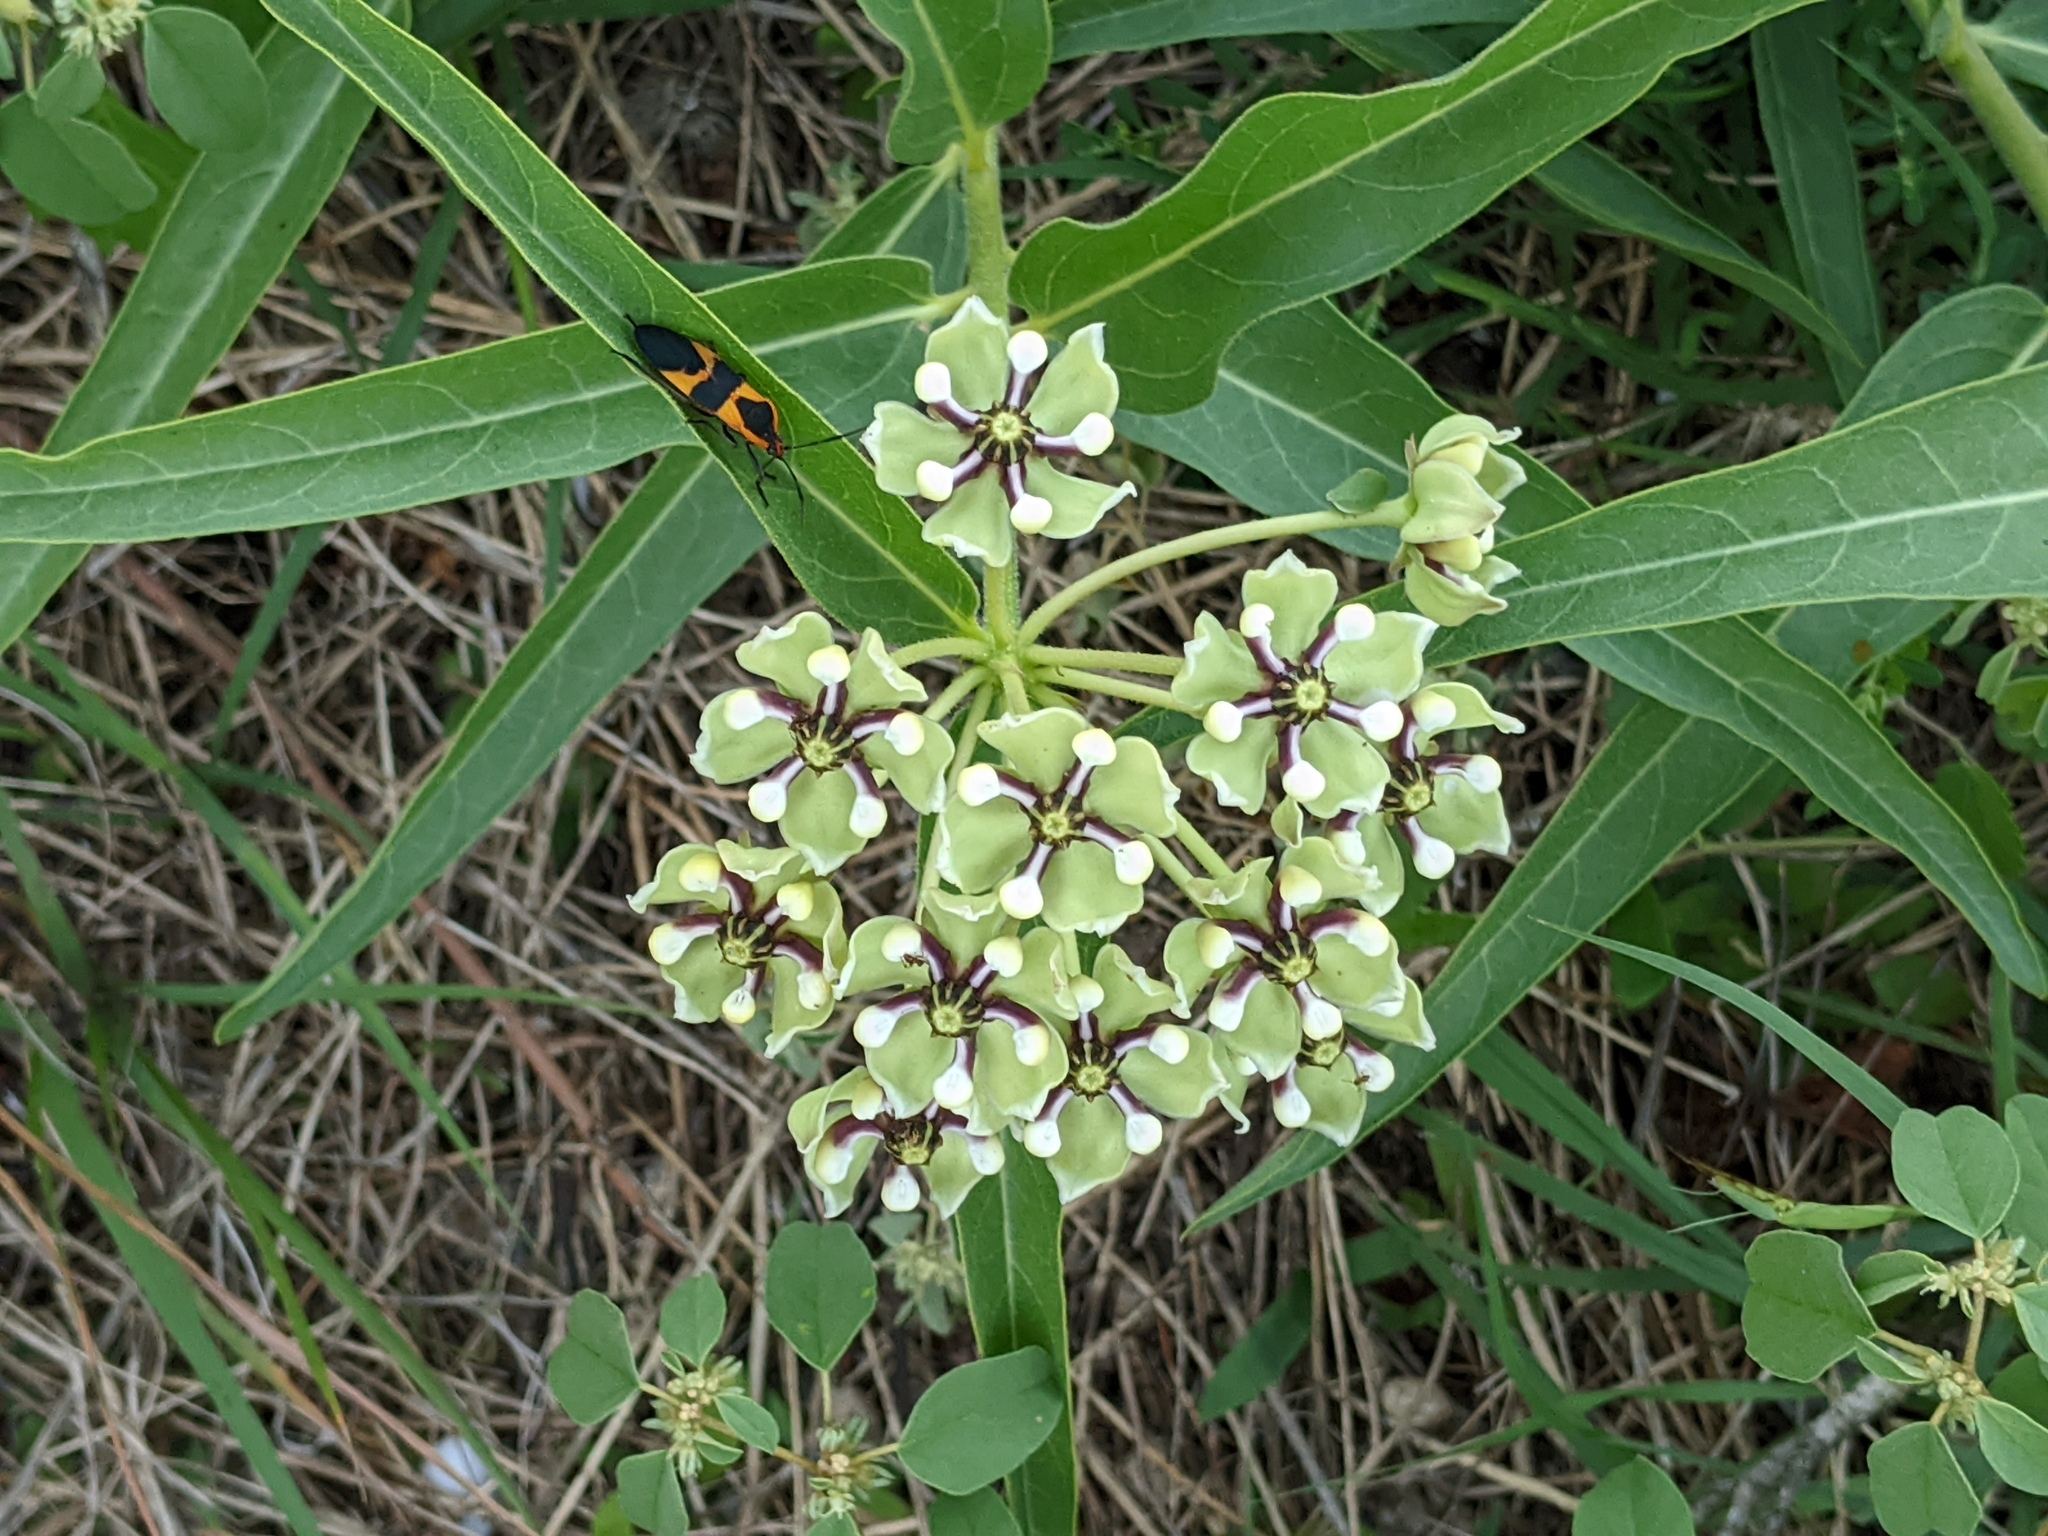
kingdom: Plantae
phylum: Tracheophyta
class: Magnoliopsida
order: Gentianales
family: Apocynaceae
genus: Asclepias
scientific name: Asclepias asperula
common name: Antelope horns
